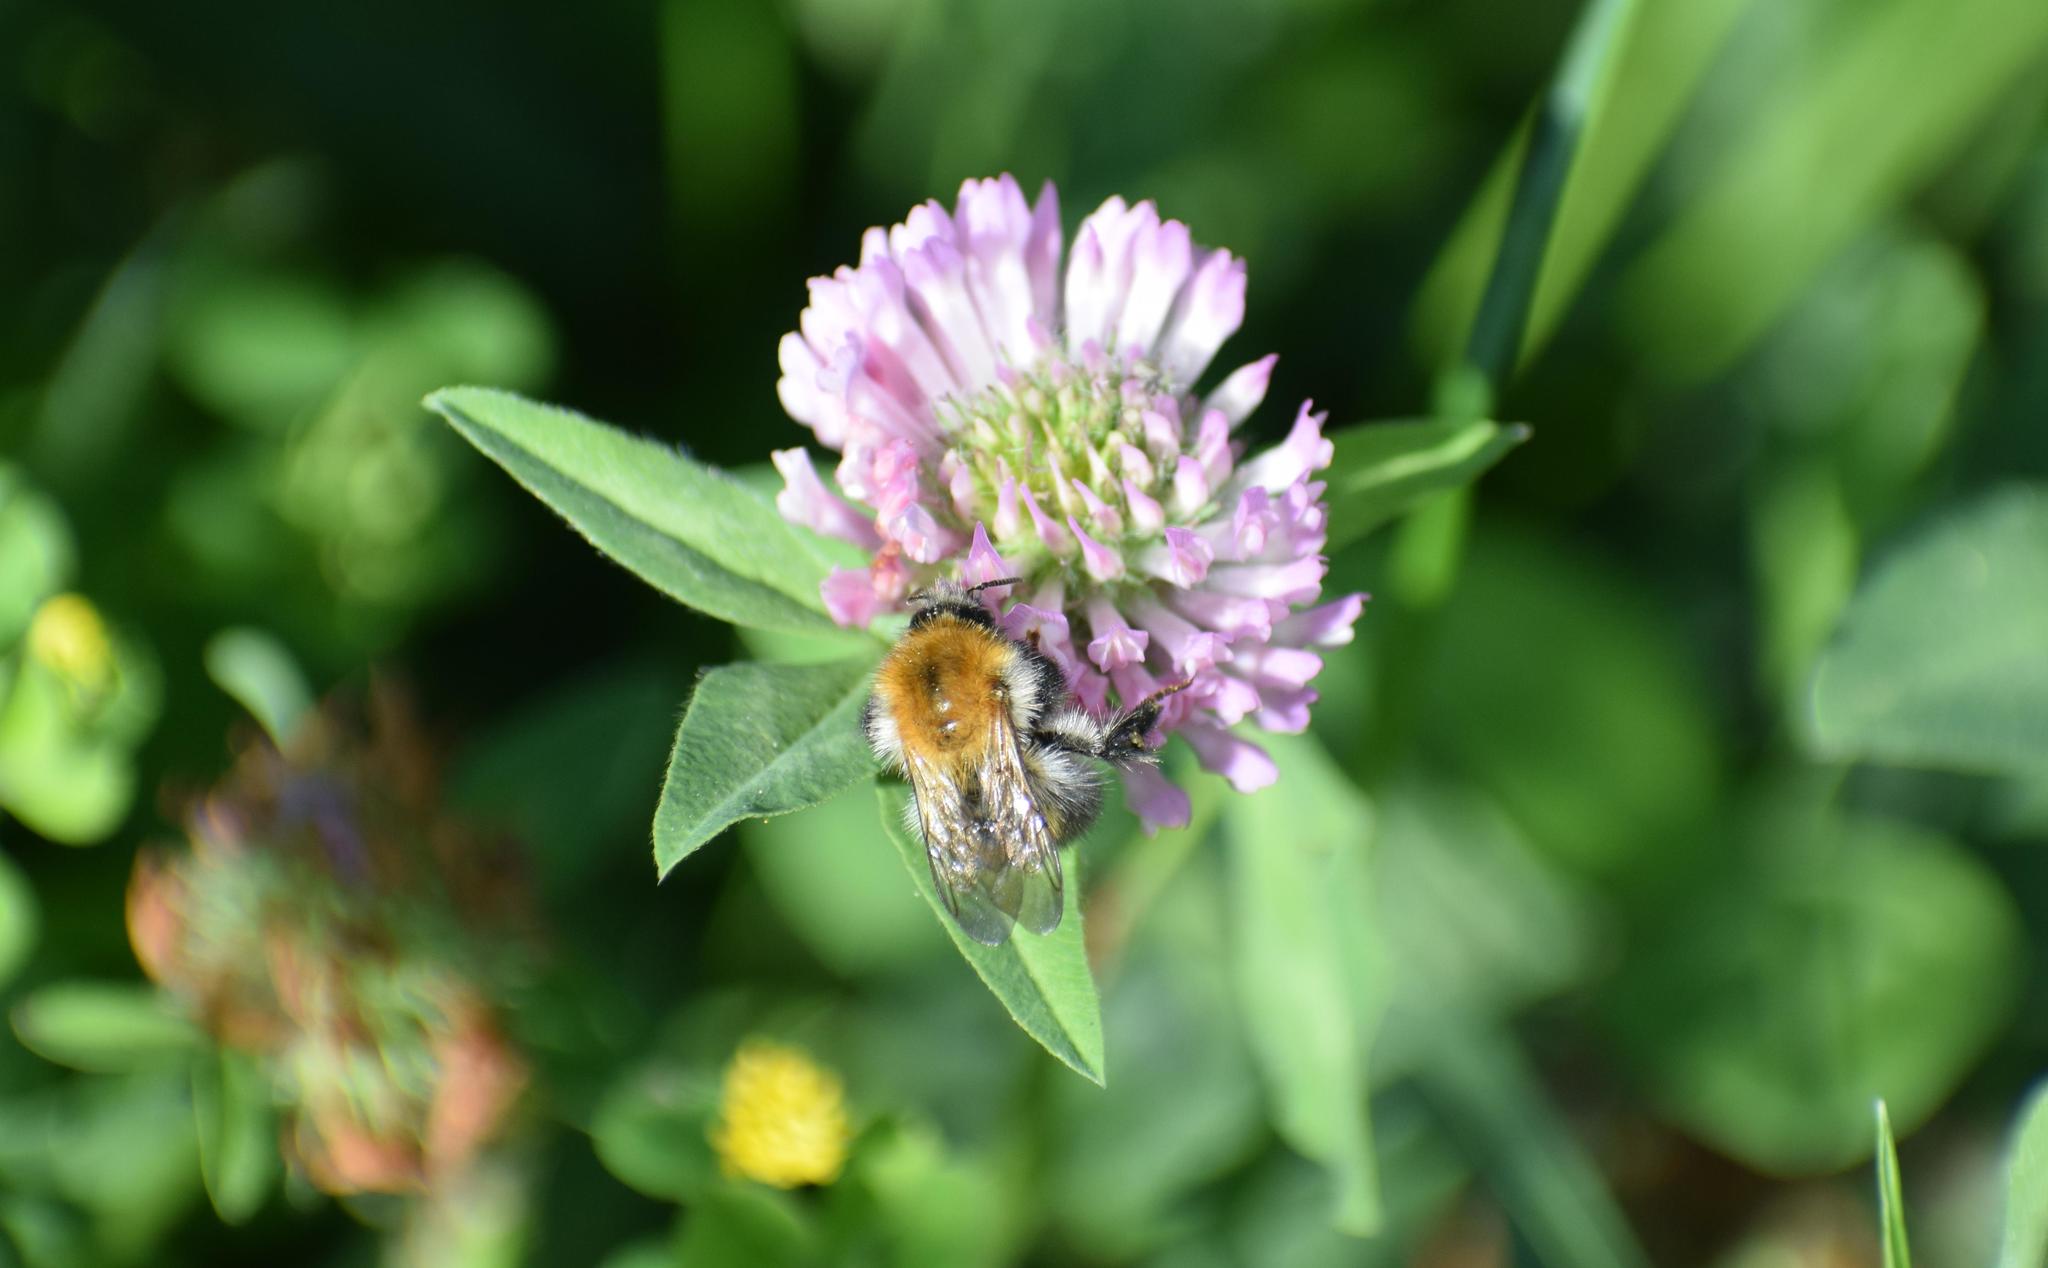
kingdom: Animalia
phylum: Arthropoda
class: Insecta
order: Hymenoptera
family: Apidae
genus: Bombus
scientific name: Bombus pascuorum
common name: Common carder bee
